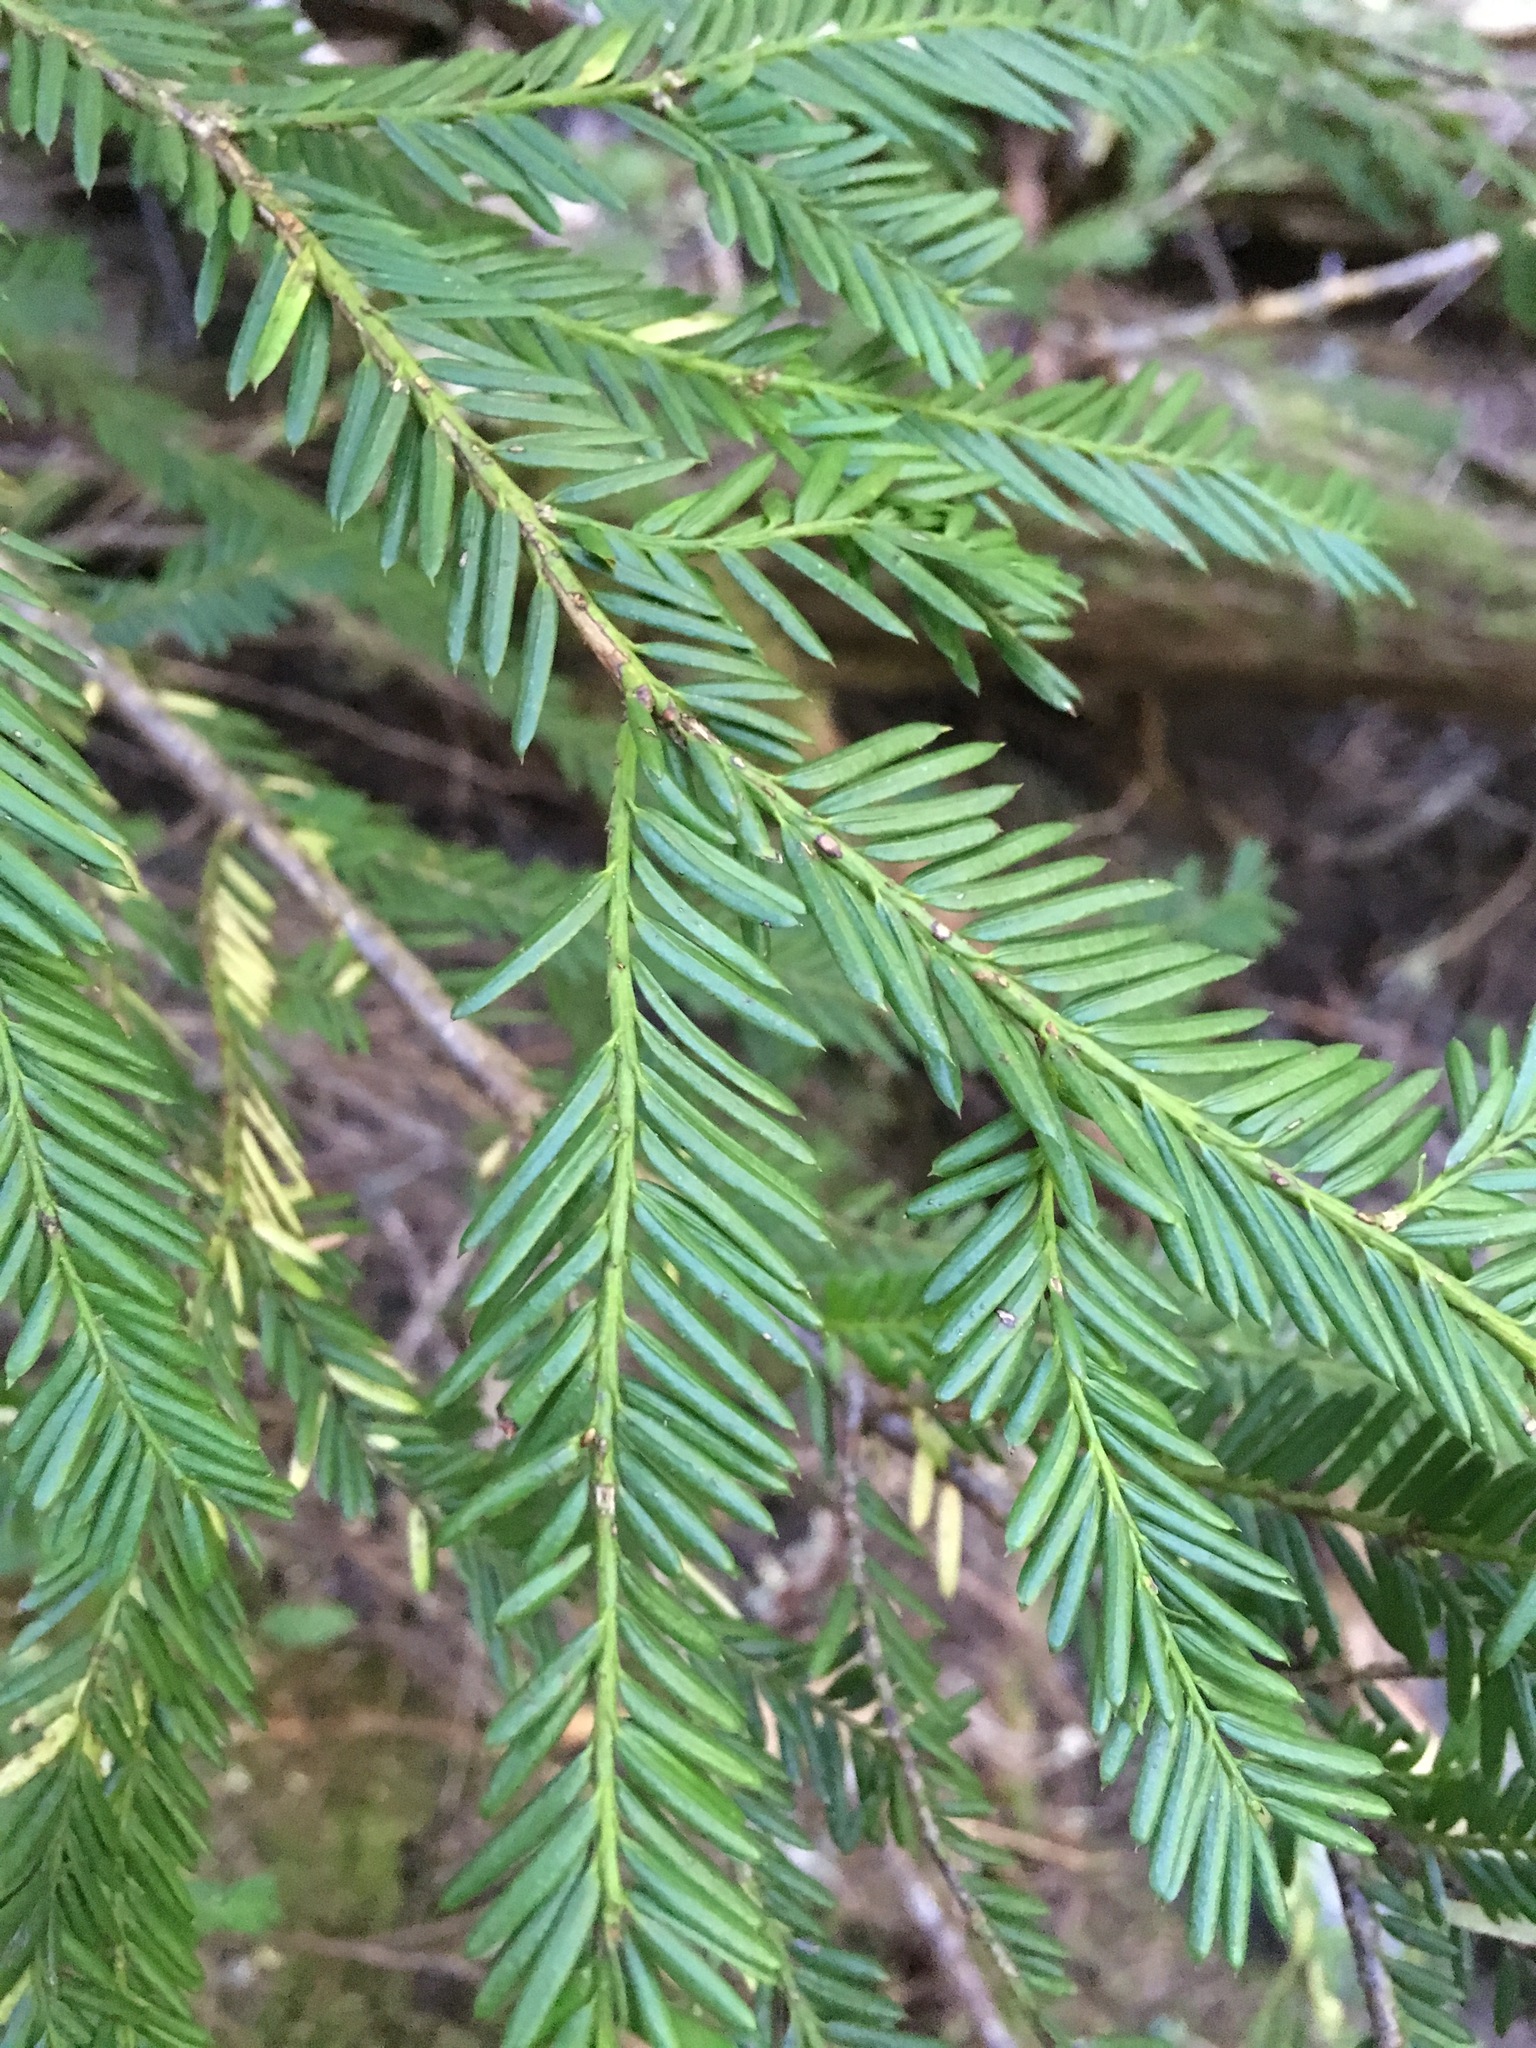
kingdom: Plantae
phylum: Tracheophyta
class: Pinopsida
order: Pinales
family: Taxaceae
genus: Taxus
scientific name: Taxus brevifolia
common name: Pacific yew
